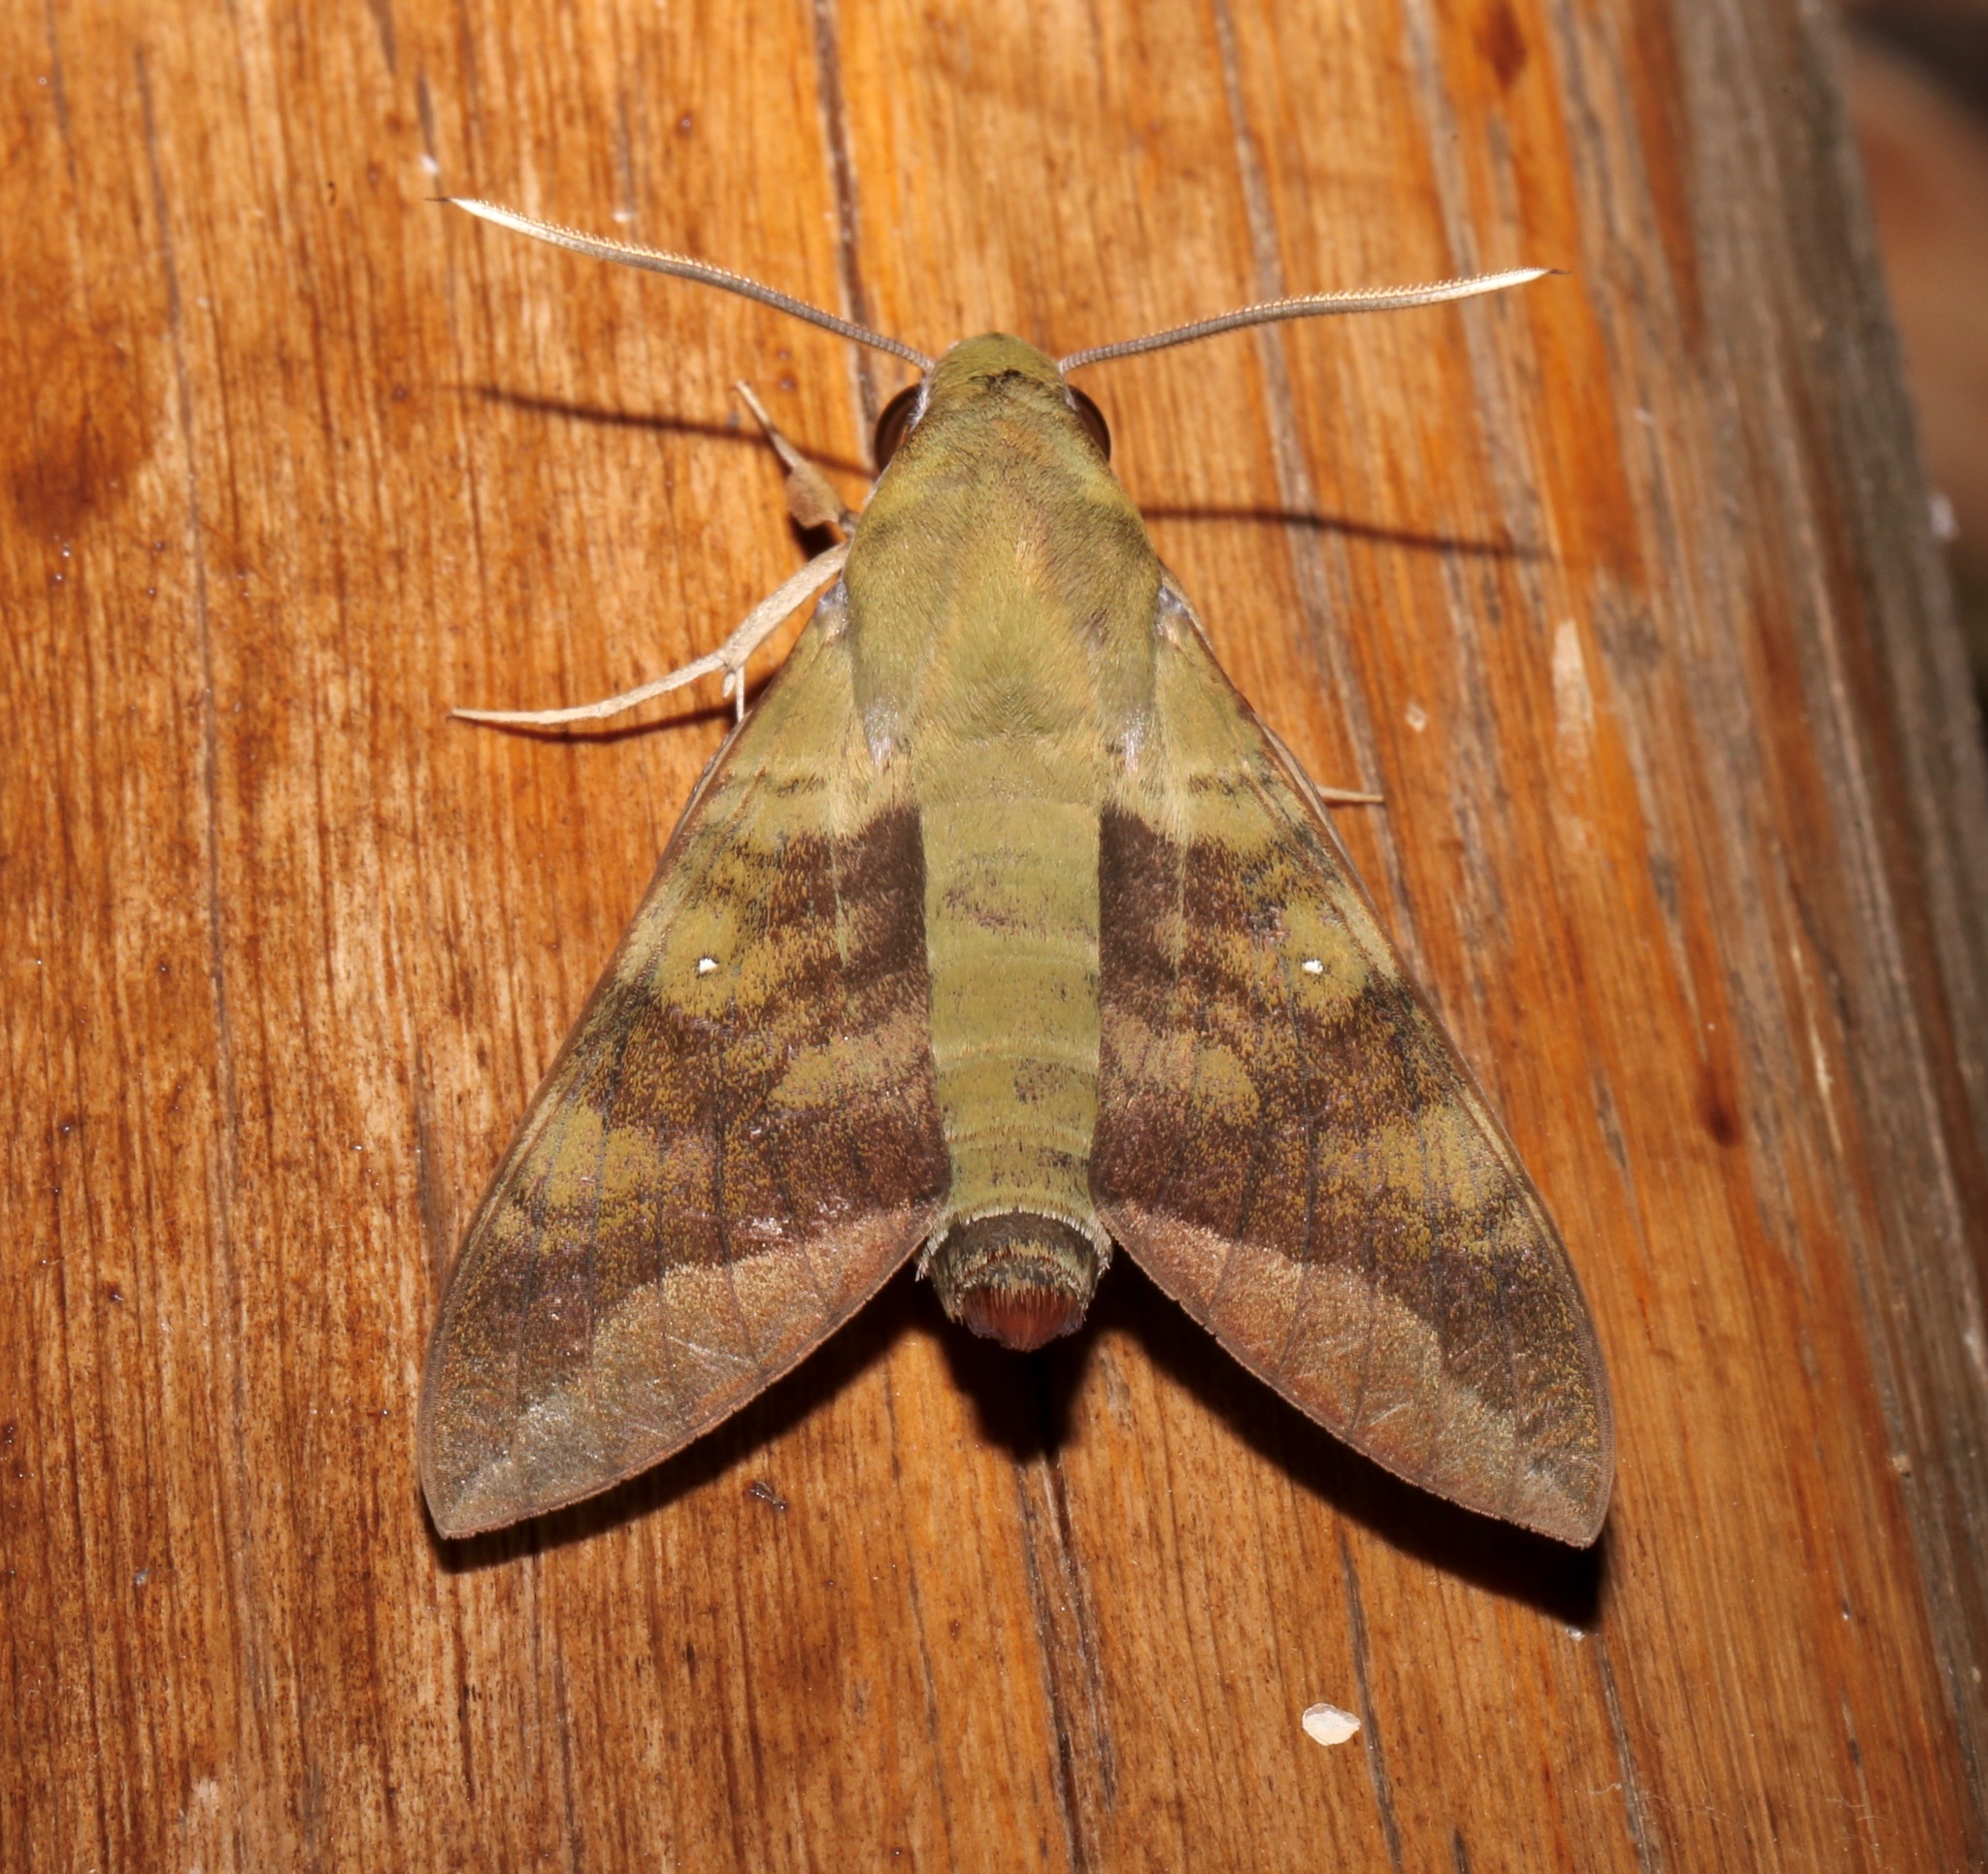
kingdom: Animalia
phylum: Arthropoda
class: Insecta
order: Lepidoptera
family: Sphingidae
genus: Nephele
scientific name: Nephele comma
